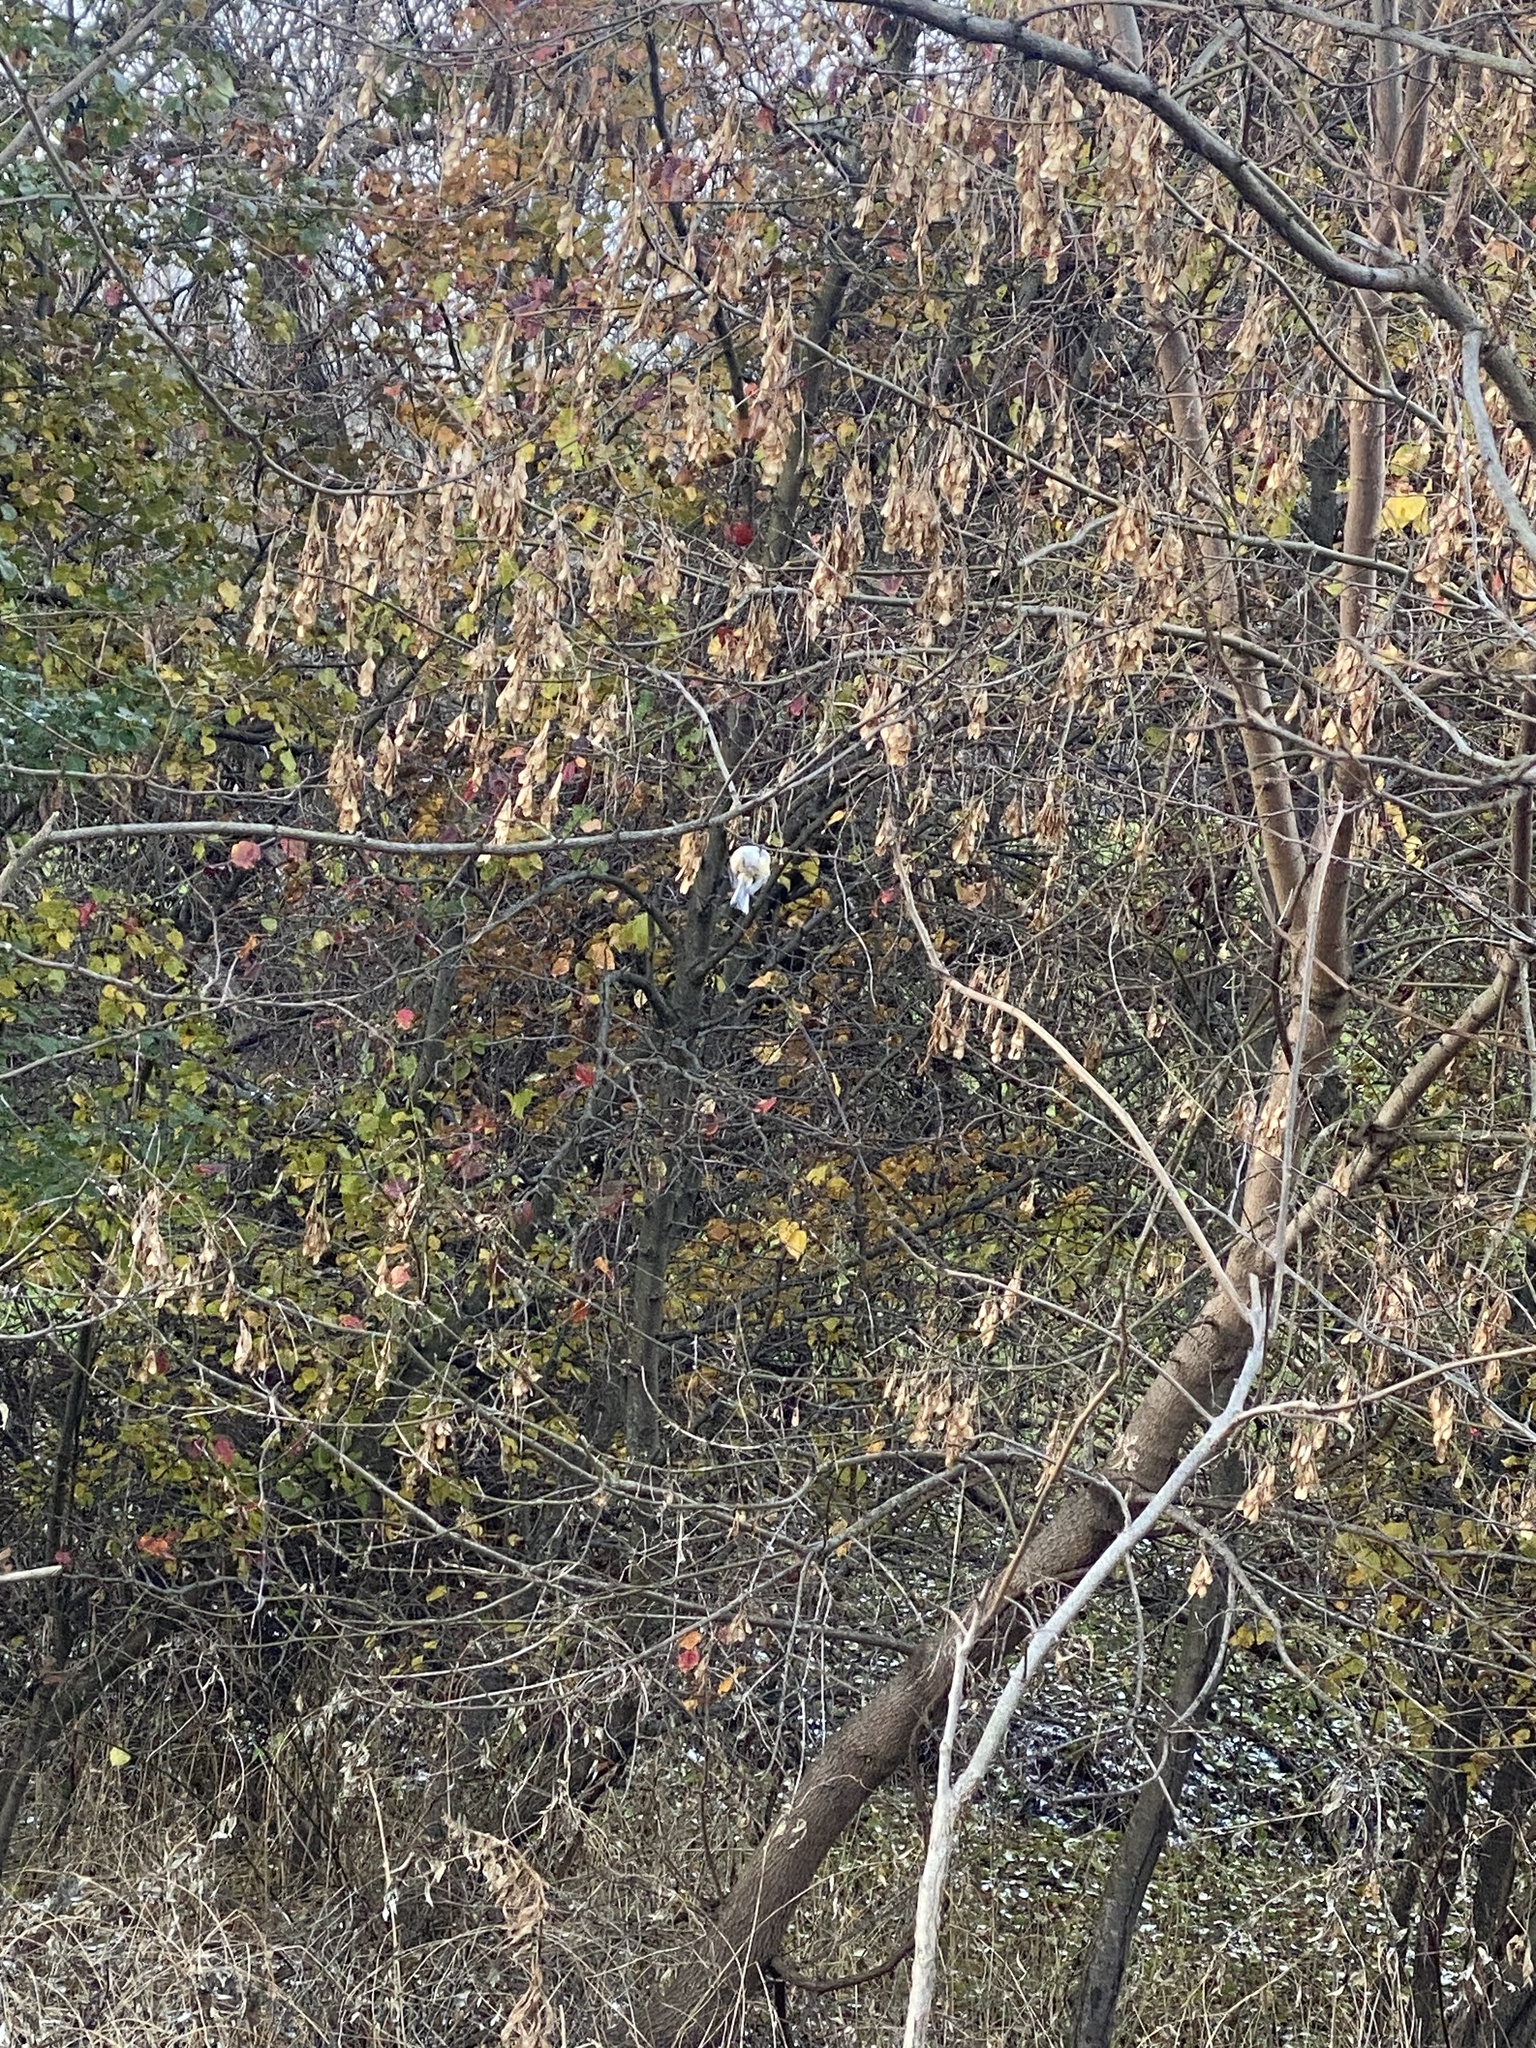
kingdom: Animalia
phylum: Chordata
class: Aves
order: Passeriformes
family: Paridae
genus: Poecile
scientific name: Poecile atricapillus
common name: Black-capped chickadee
